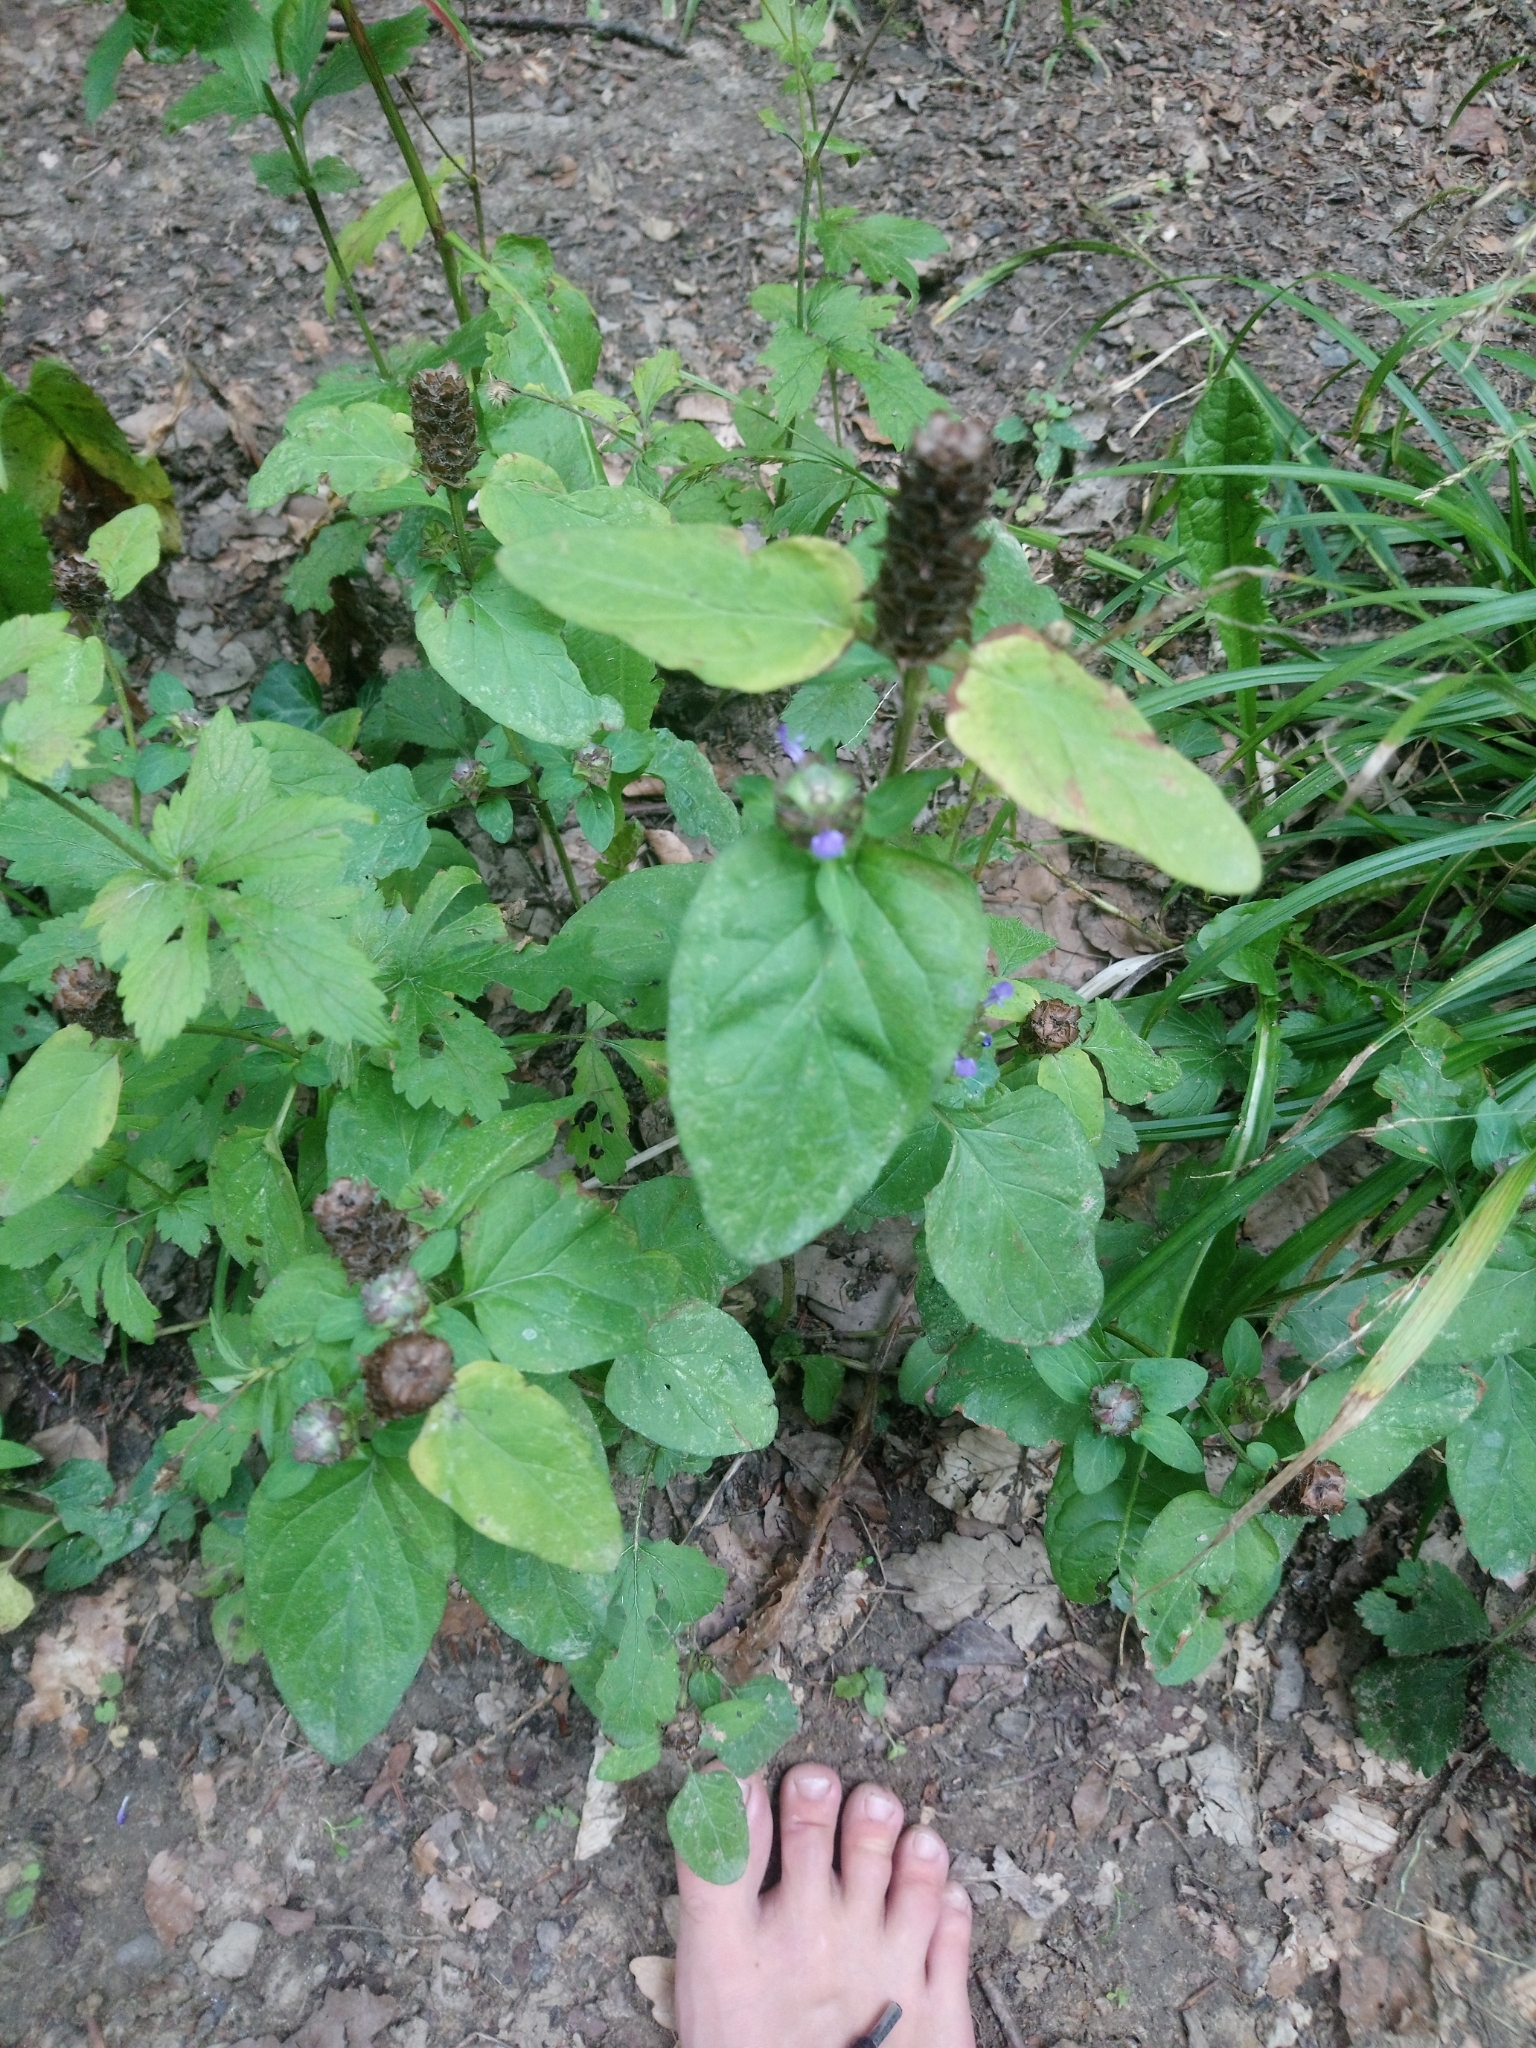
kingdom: Plantae
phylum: Tracheophyta
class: Magnoliopsida
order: Lamiales
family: Lamiaceae
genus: Prunella
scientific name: Prunella vulgaris
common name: Heal-all
